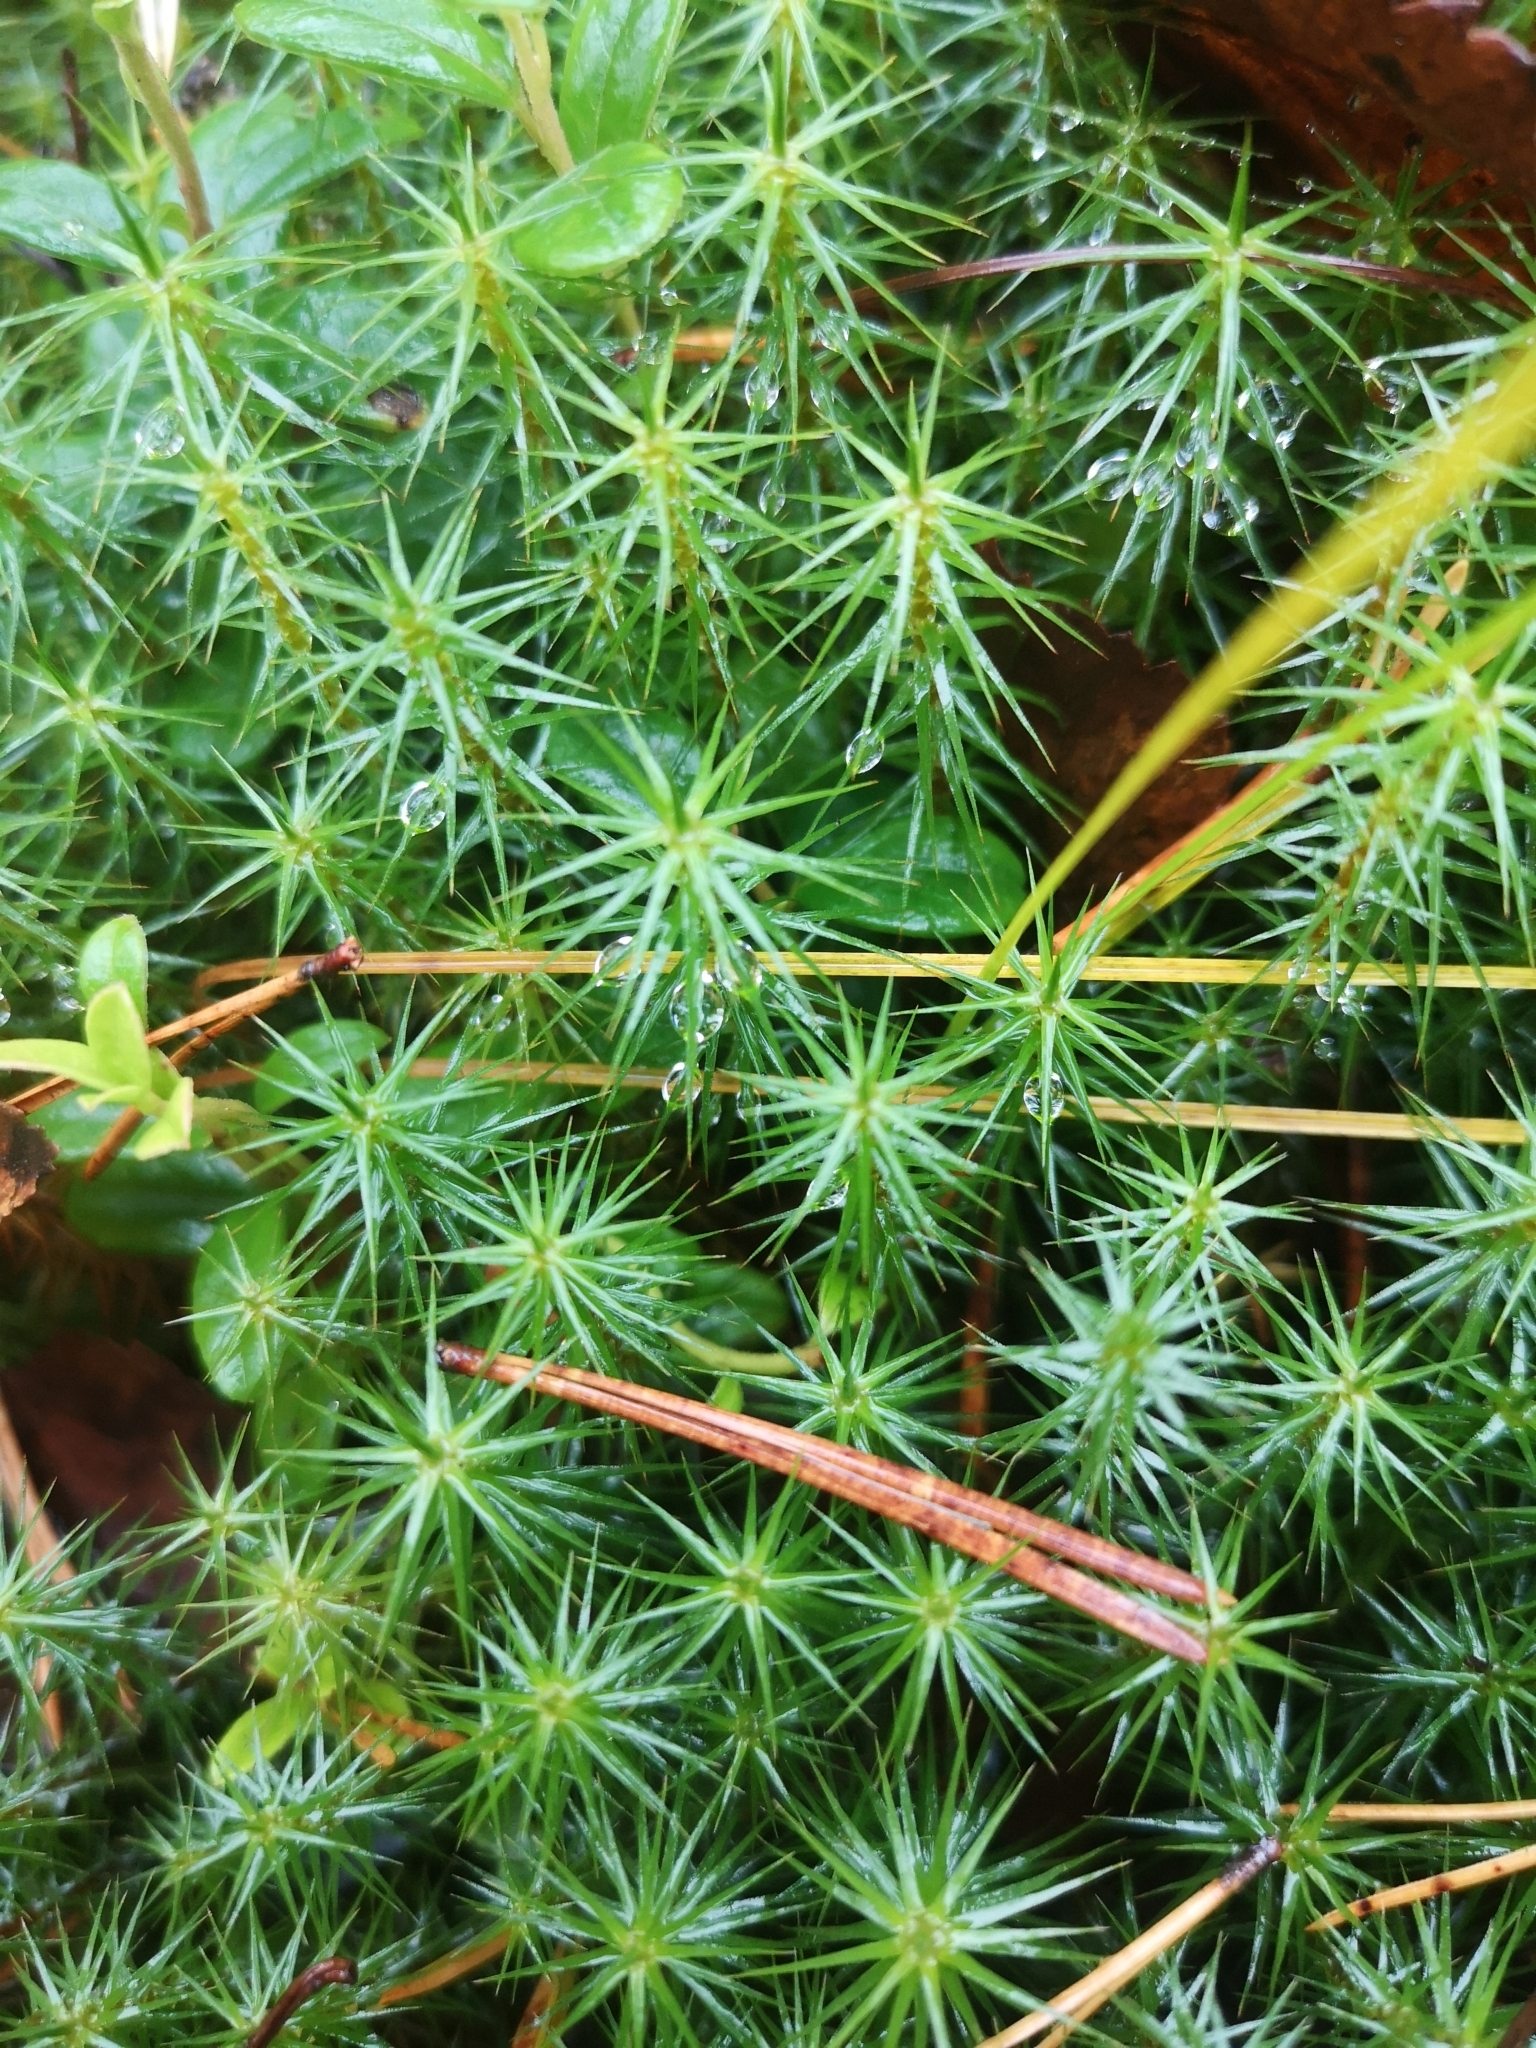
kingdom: Plantae
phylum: Bryophyta
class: Polytrichopsida
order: Polytrichales
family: Polytrichaceae
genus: Polytrichum
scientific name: Polytrichum commune
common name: Common haircap
